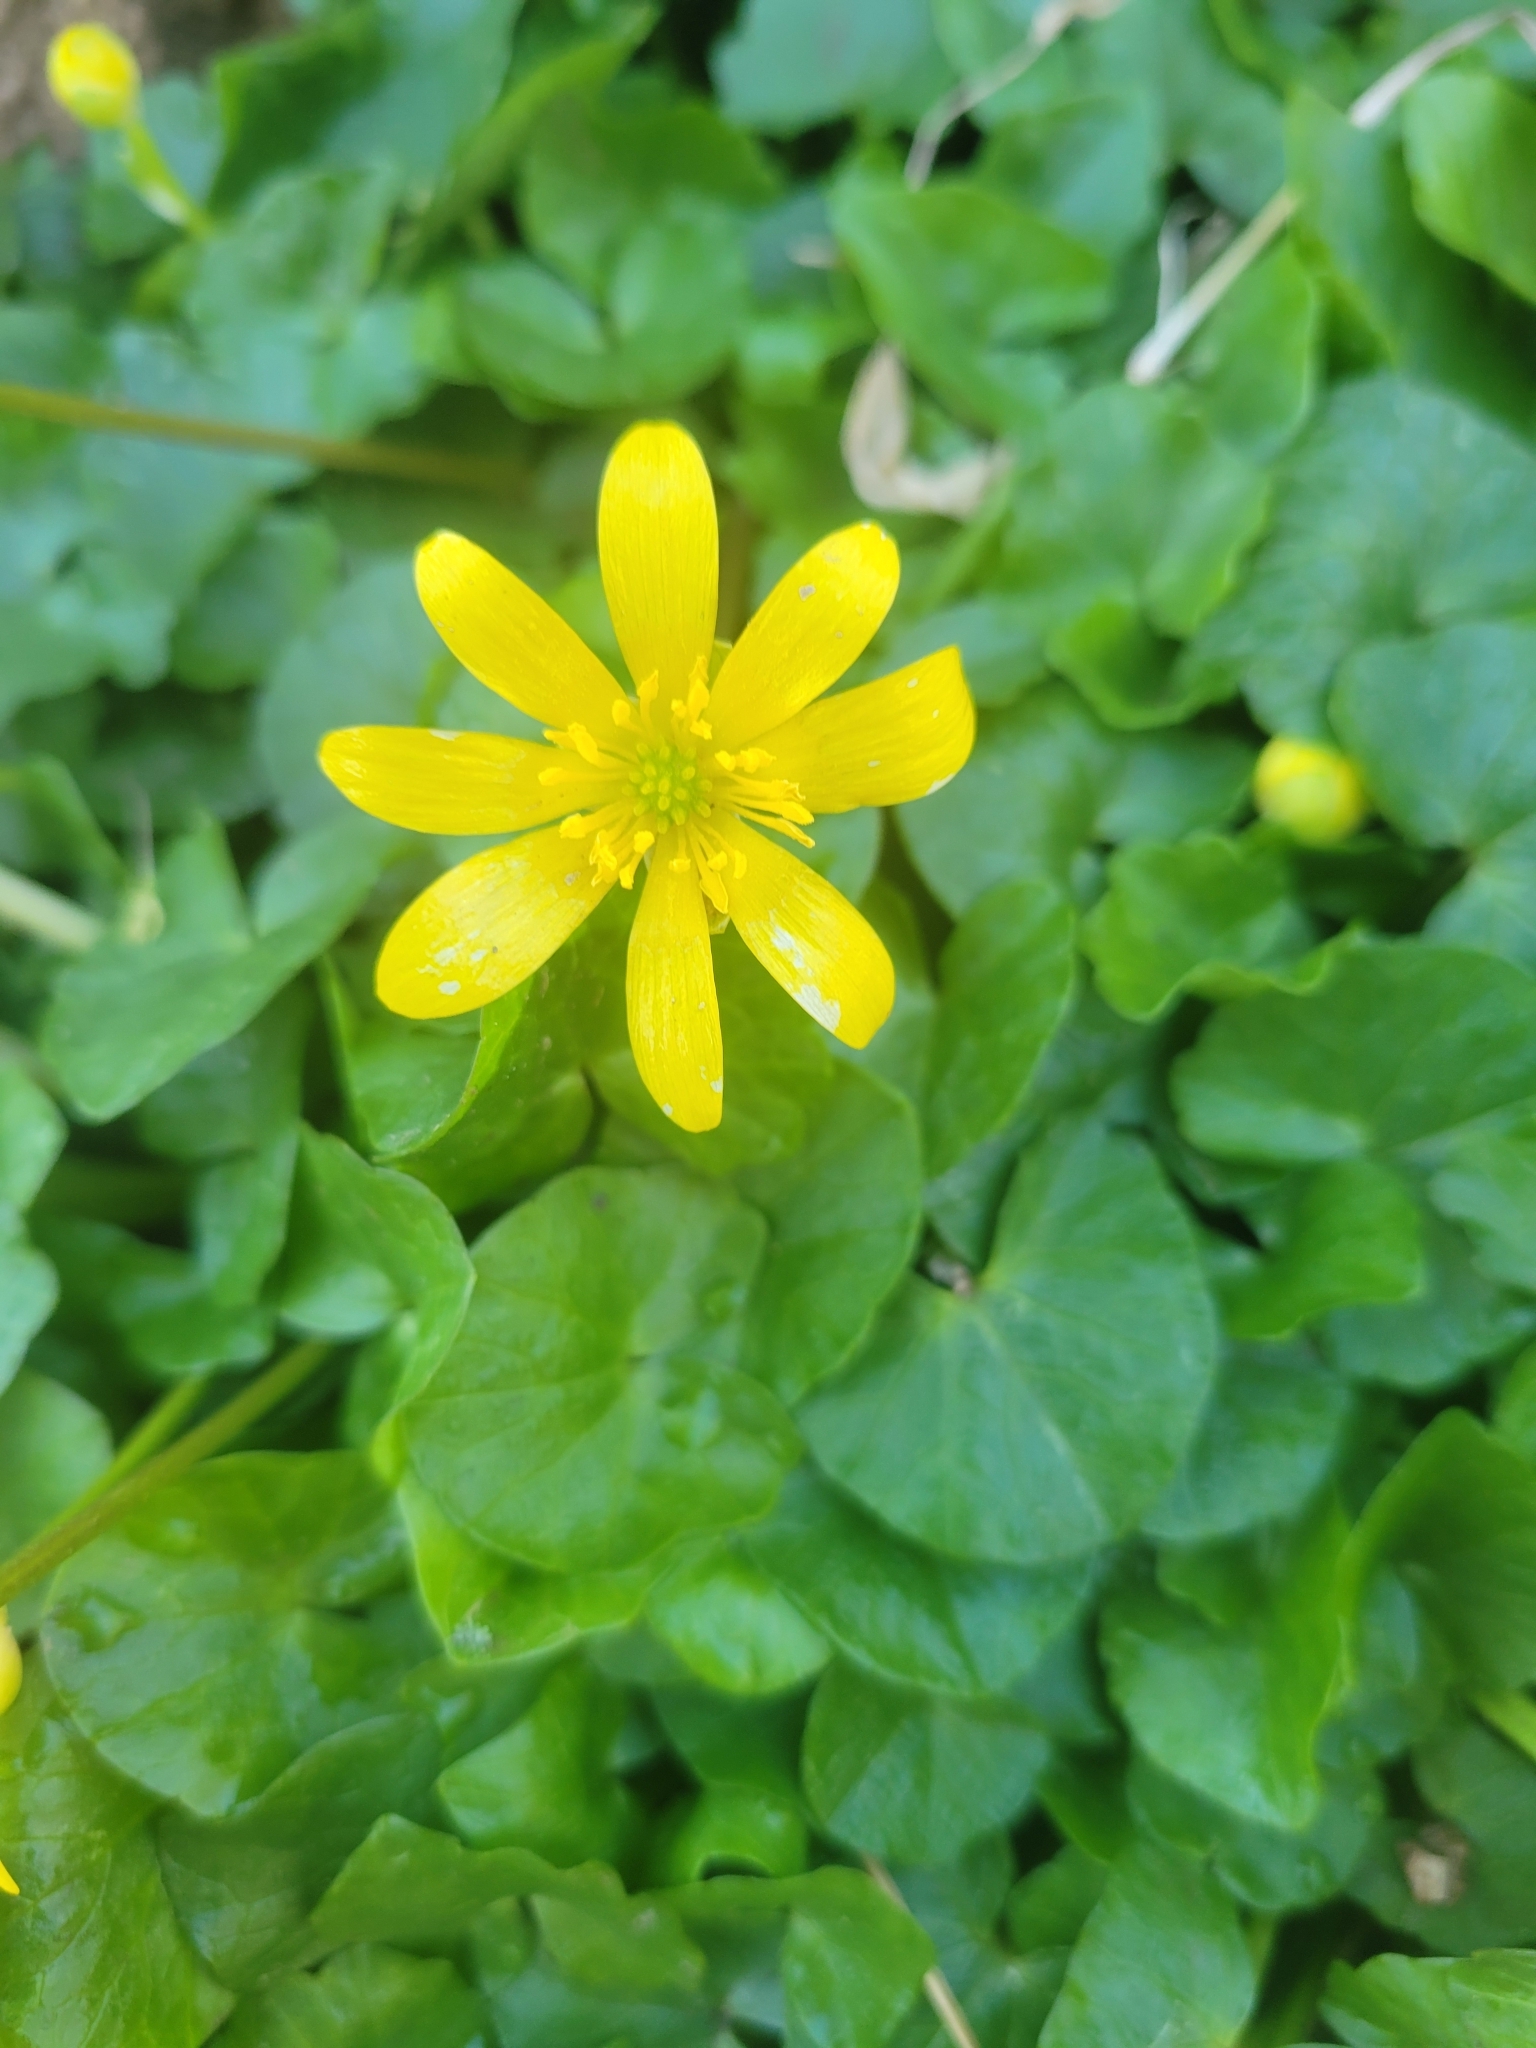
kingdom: Plantae
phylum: Tracheophyta
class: Magnoliopsida
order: Ranunculales
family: Ranunculaceae
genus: Ficaria
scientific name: Ficaria verna
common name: Lesser celandine
